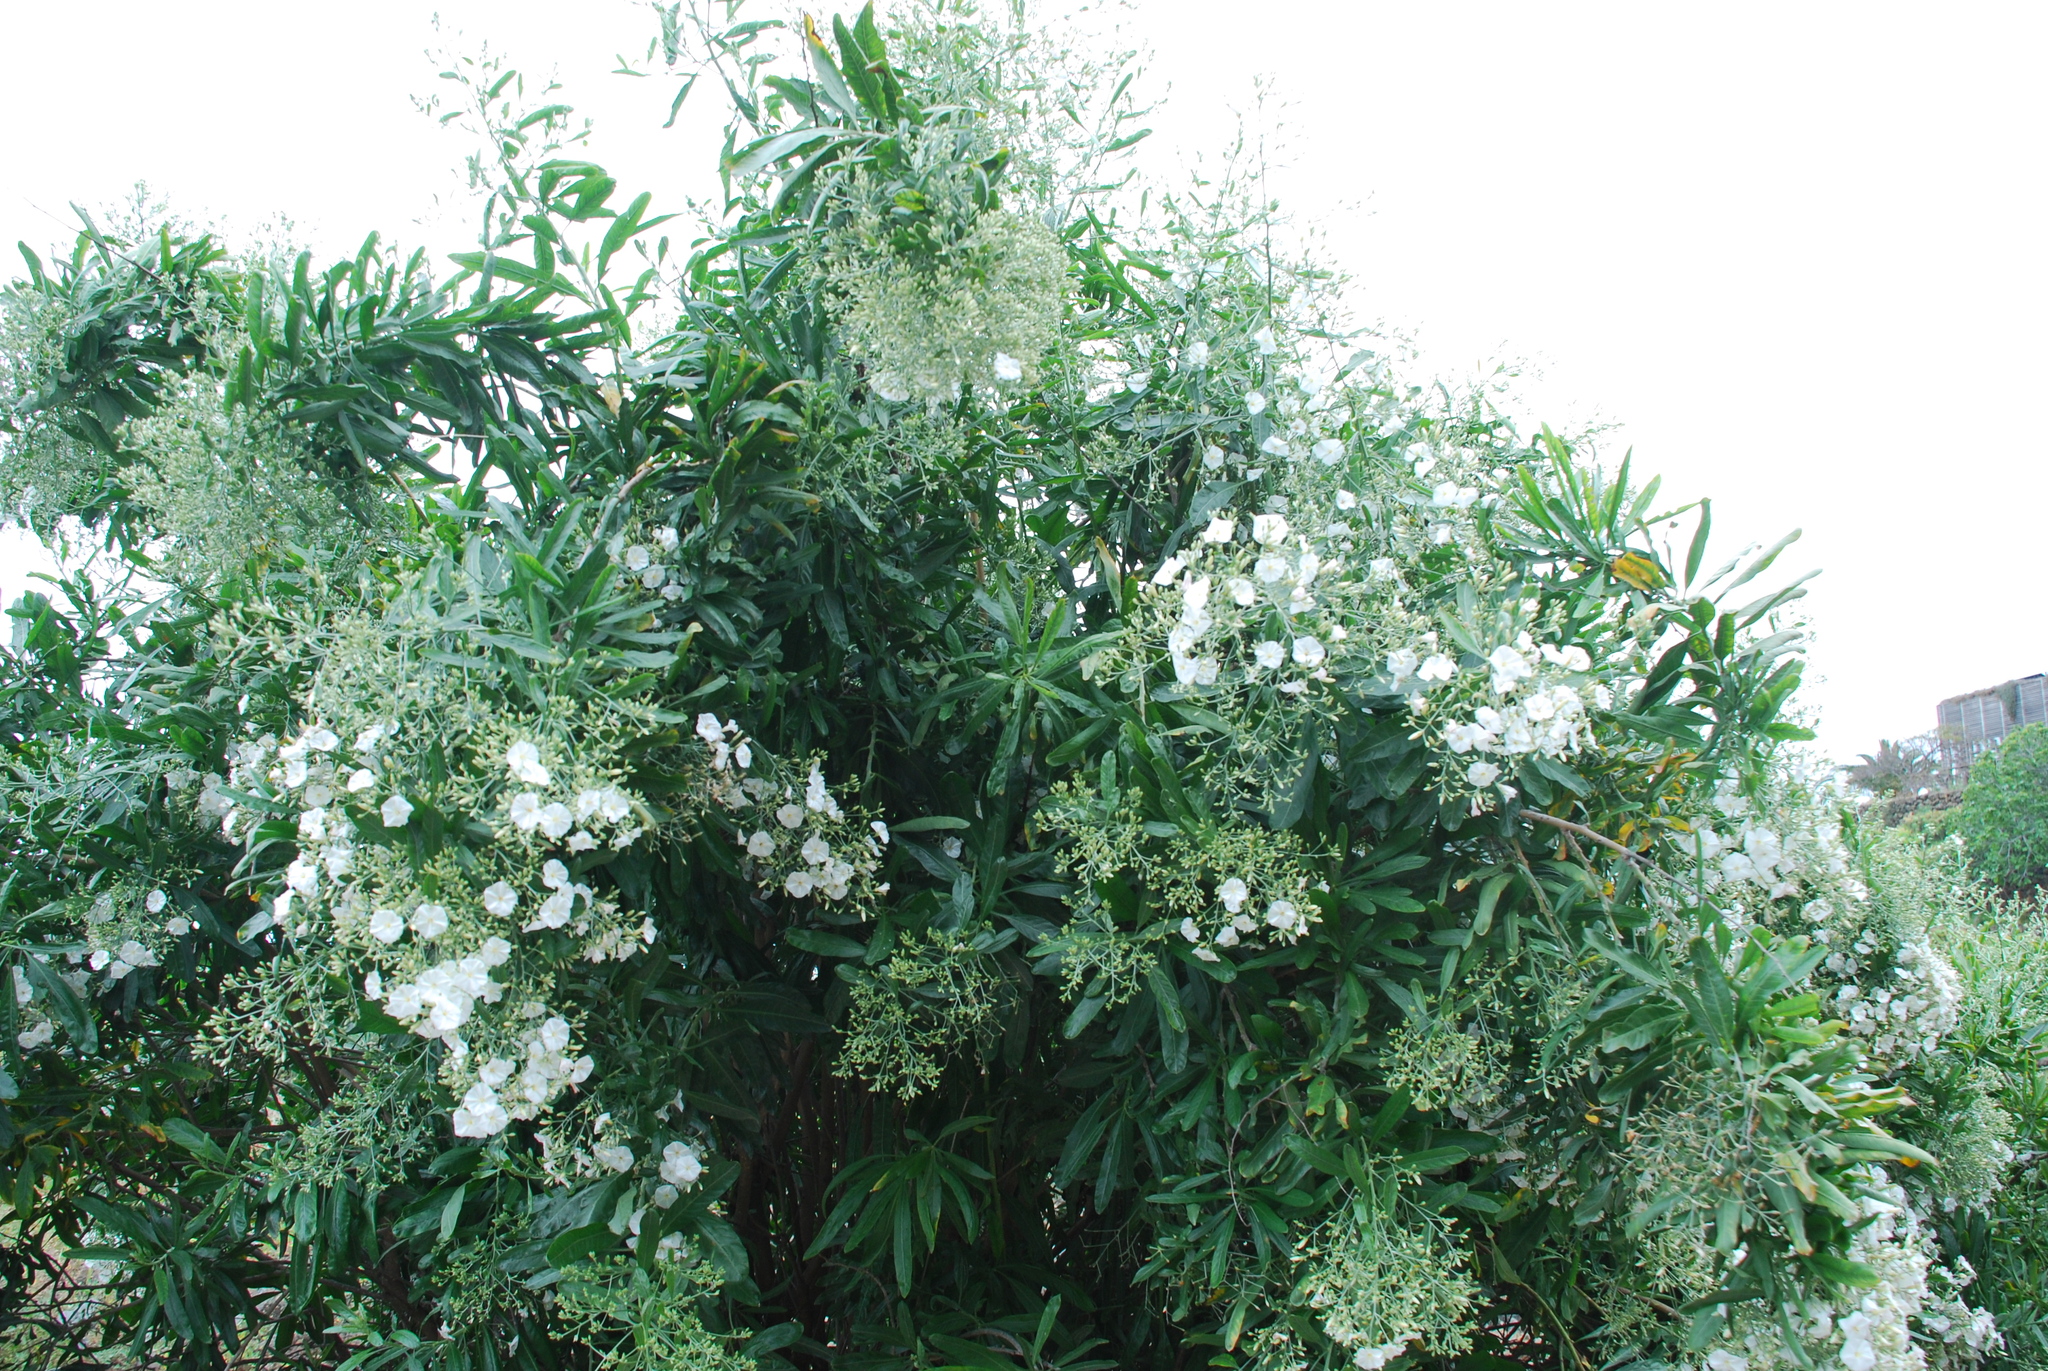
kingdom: Plantae
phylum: Tracheophyta
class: Magnoliopsida
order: Solanales
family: Convolvulaceae
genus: Convolvulus
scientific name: Convolvulus floridus
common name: Guadil
